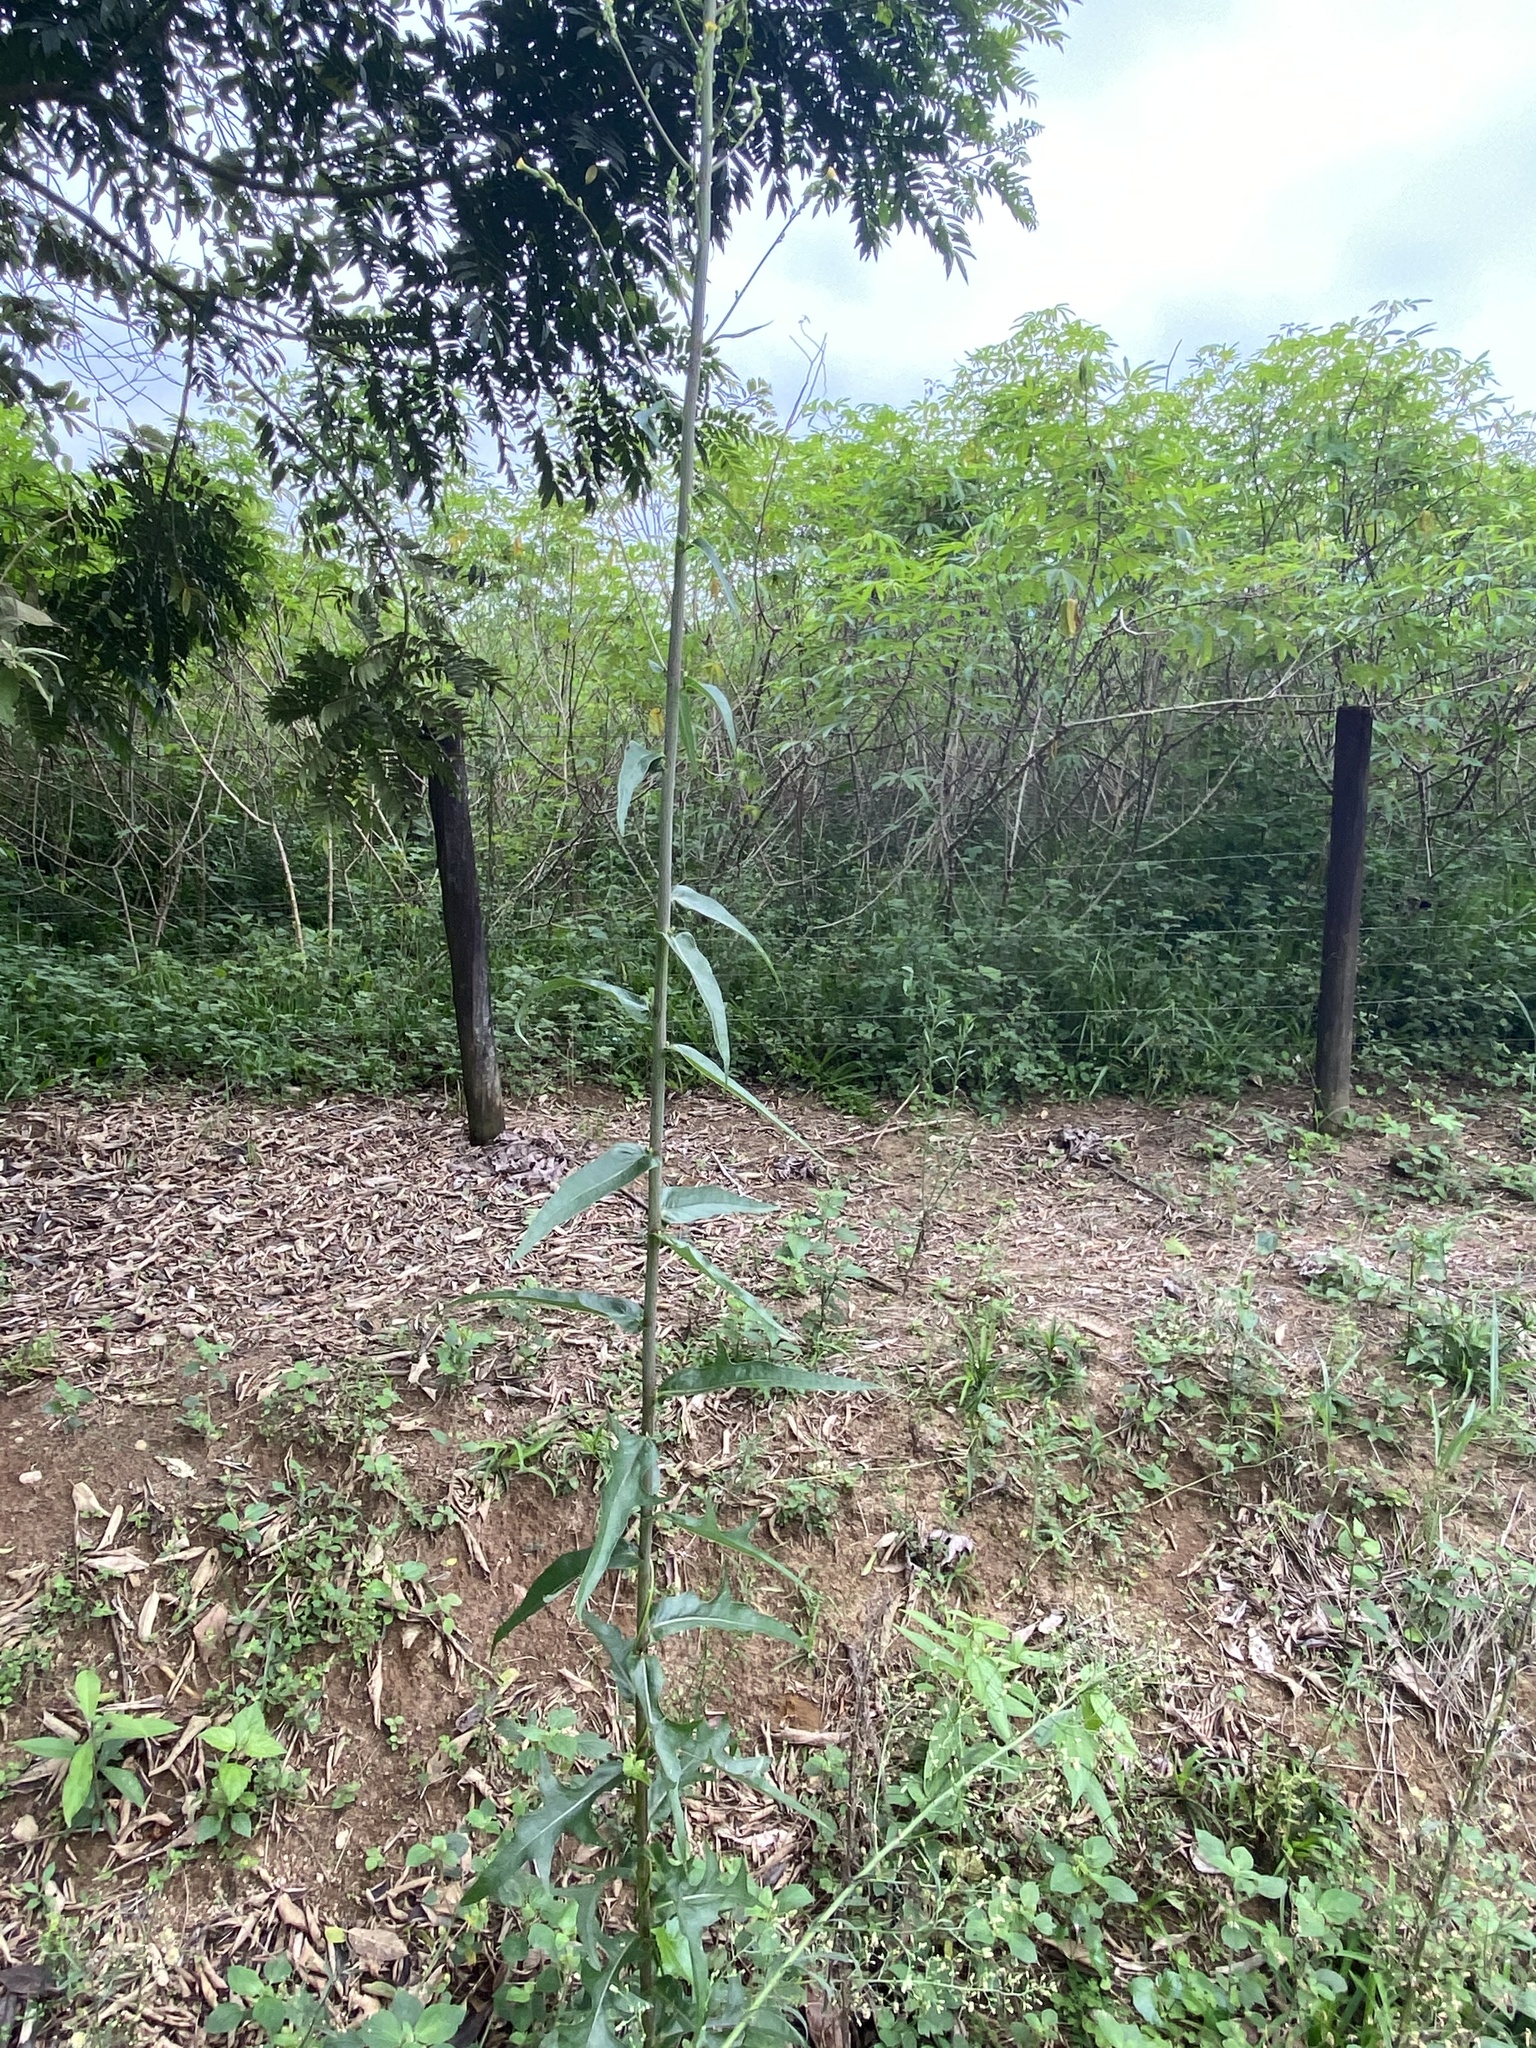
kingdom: Plantae
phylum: Tracheophyta
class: Magnoliopsida
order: Asterales
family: Asteraceae
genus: Lactuca
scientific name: Lactuca canadensis
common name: Canada lettuce
